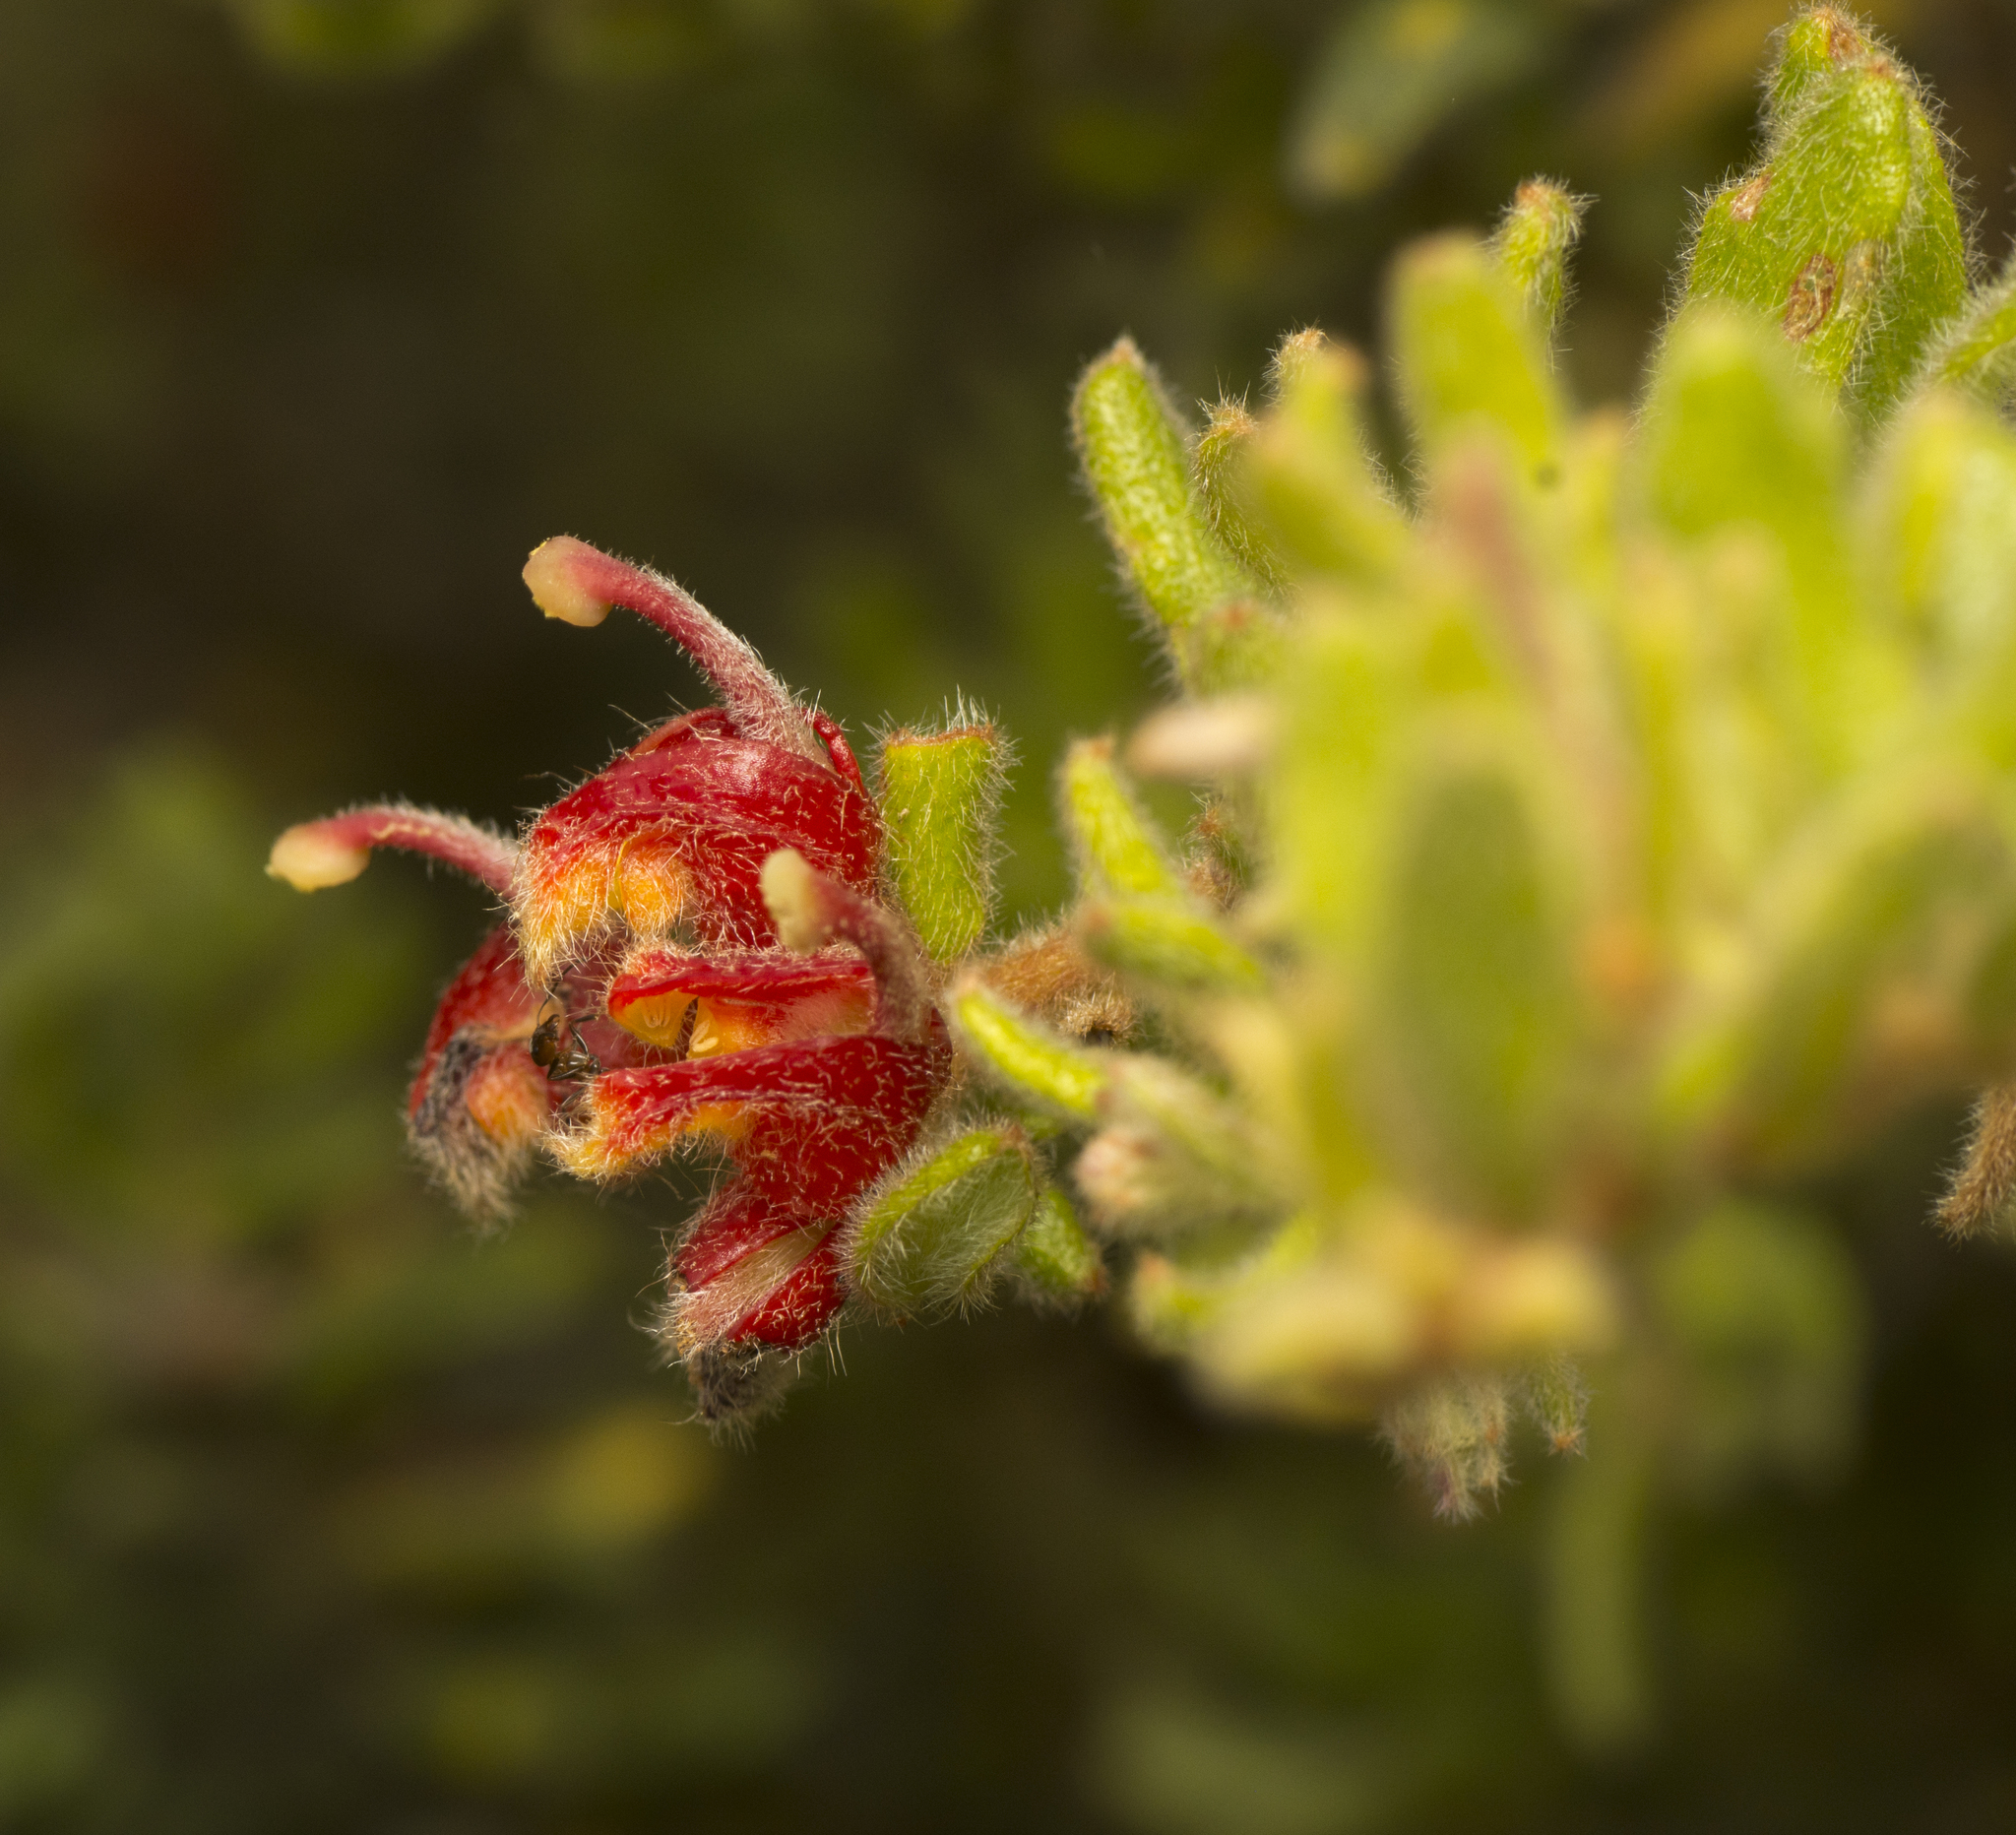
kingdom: Plantae
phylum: Tracheophyta
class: Magnoliopsida
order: Proteales
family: Proteaceae
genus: Grevillea
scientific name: Grevillea alpina
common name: Catclaws grevillea
